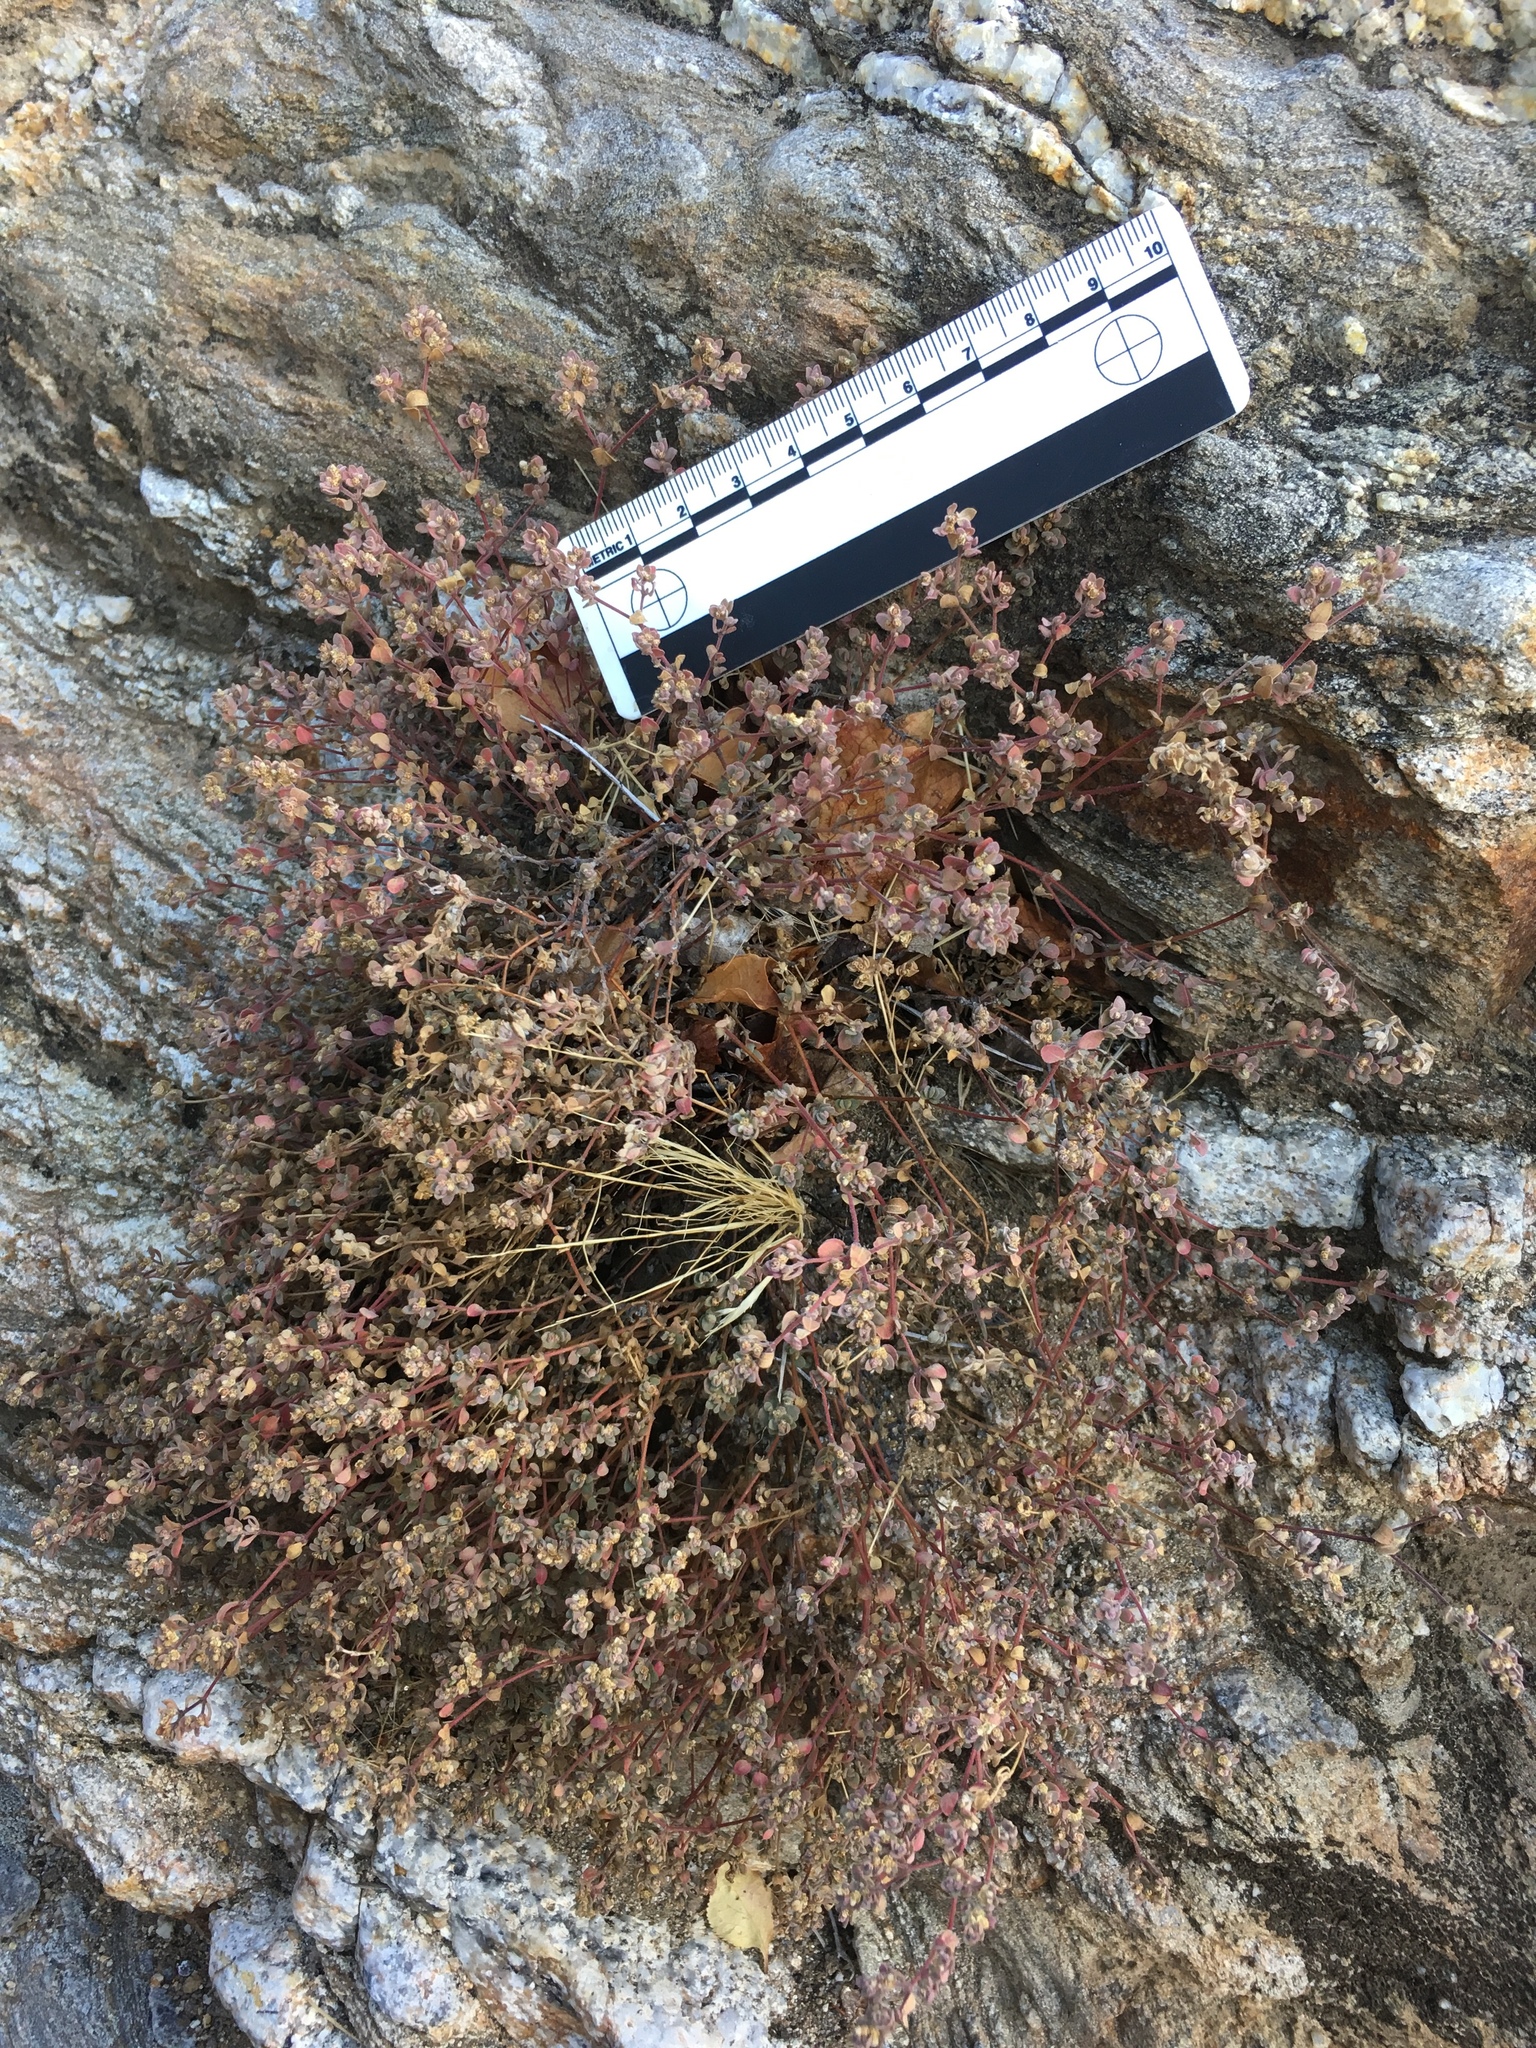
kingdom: Plantae
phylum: Tracheophyta
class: Magnoliopsida
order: Malpighiales
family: Euphorbiaceae
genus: Euphorbia
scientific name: Euphorbia melanadenia
